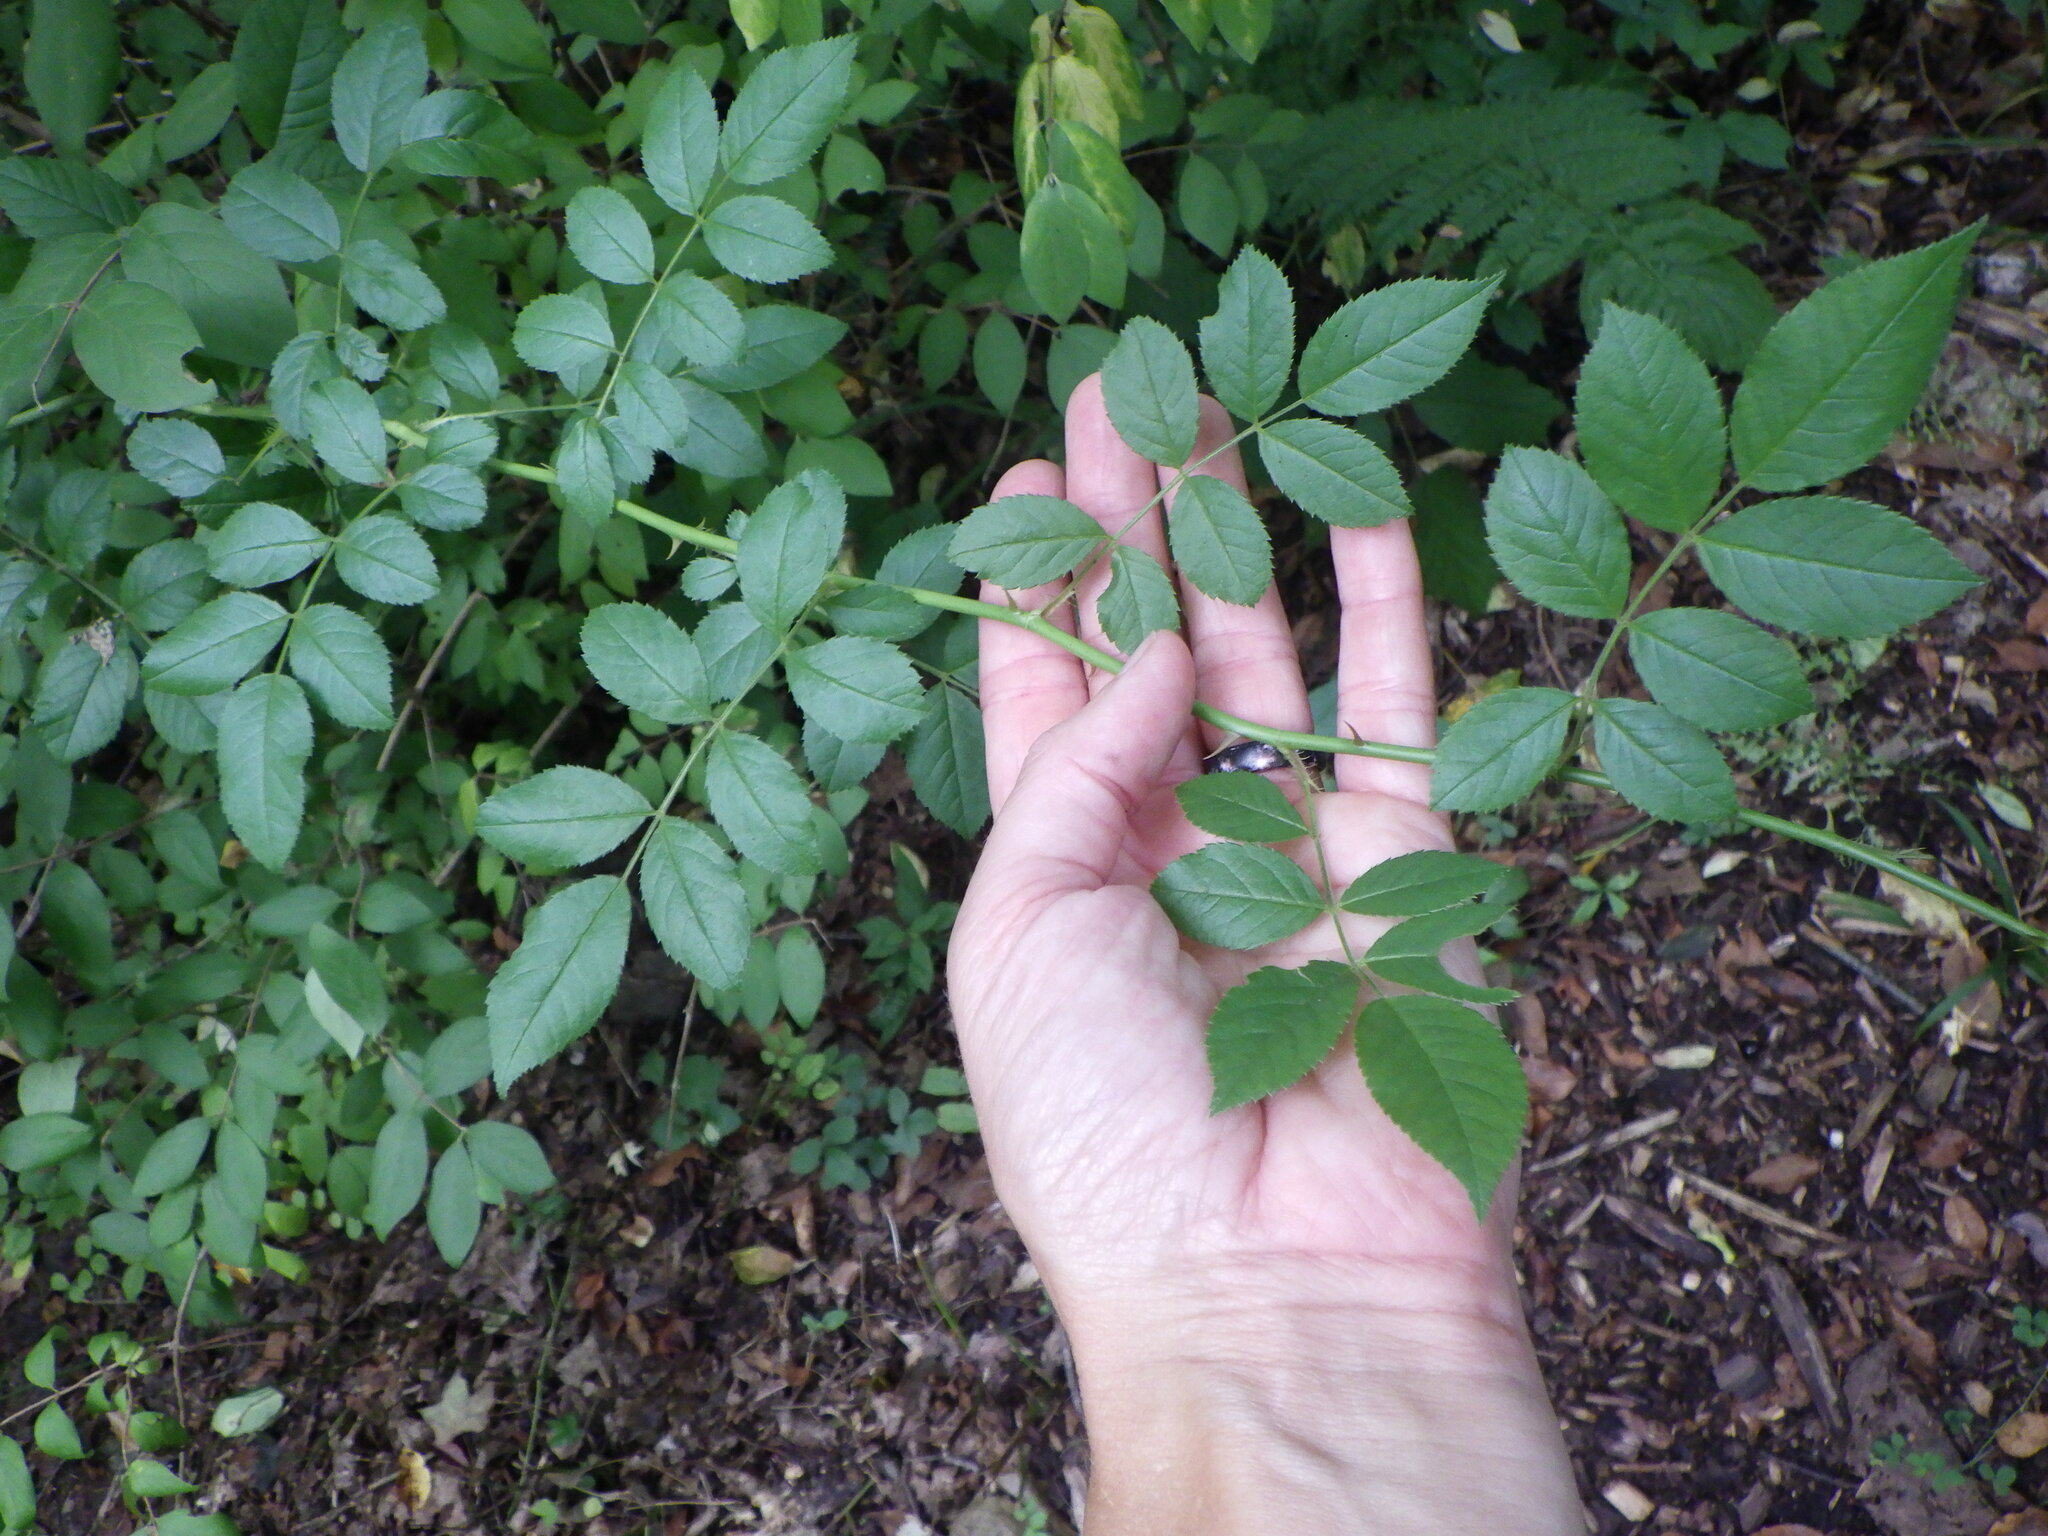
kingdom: Plantae
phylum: Tracheophyta
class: Magnoliopsida
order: Rosales
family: Rosaceae
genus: Rosa
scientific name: Rosa multiflora
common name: Multiflora rose
